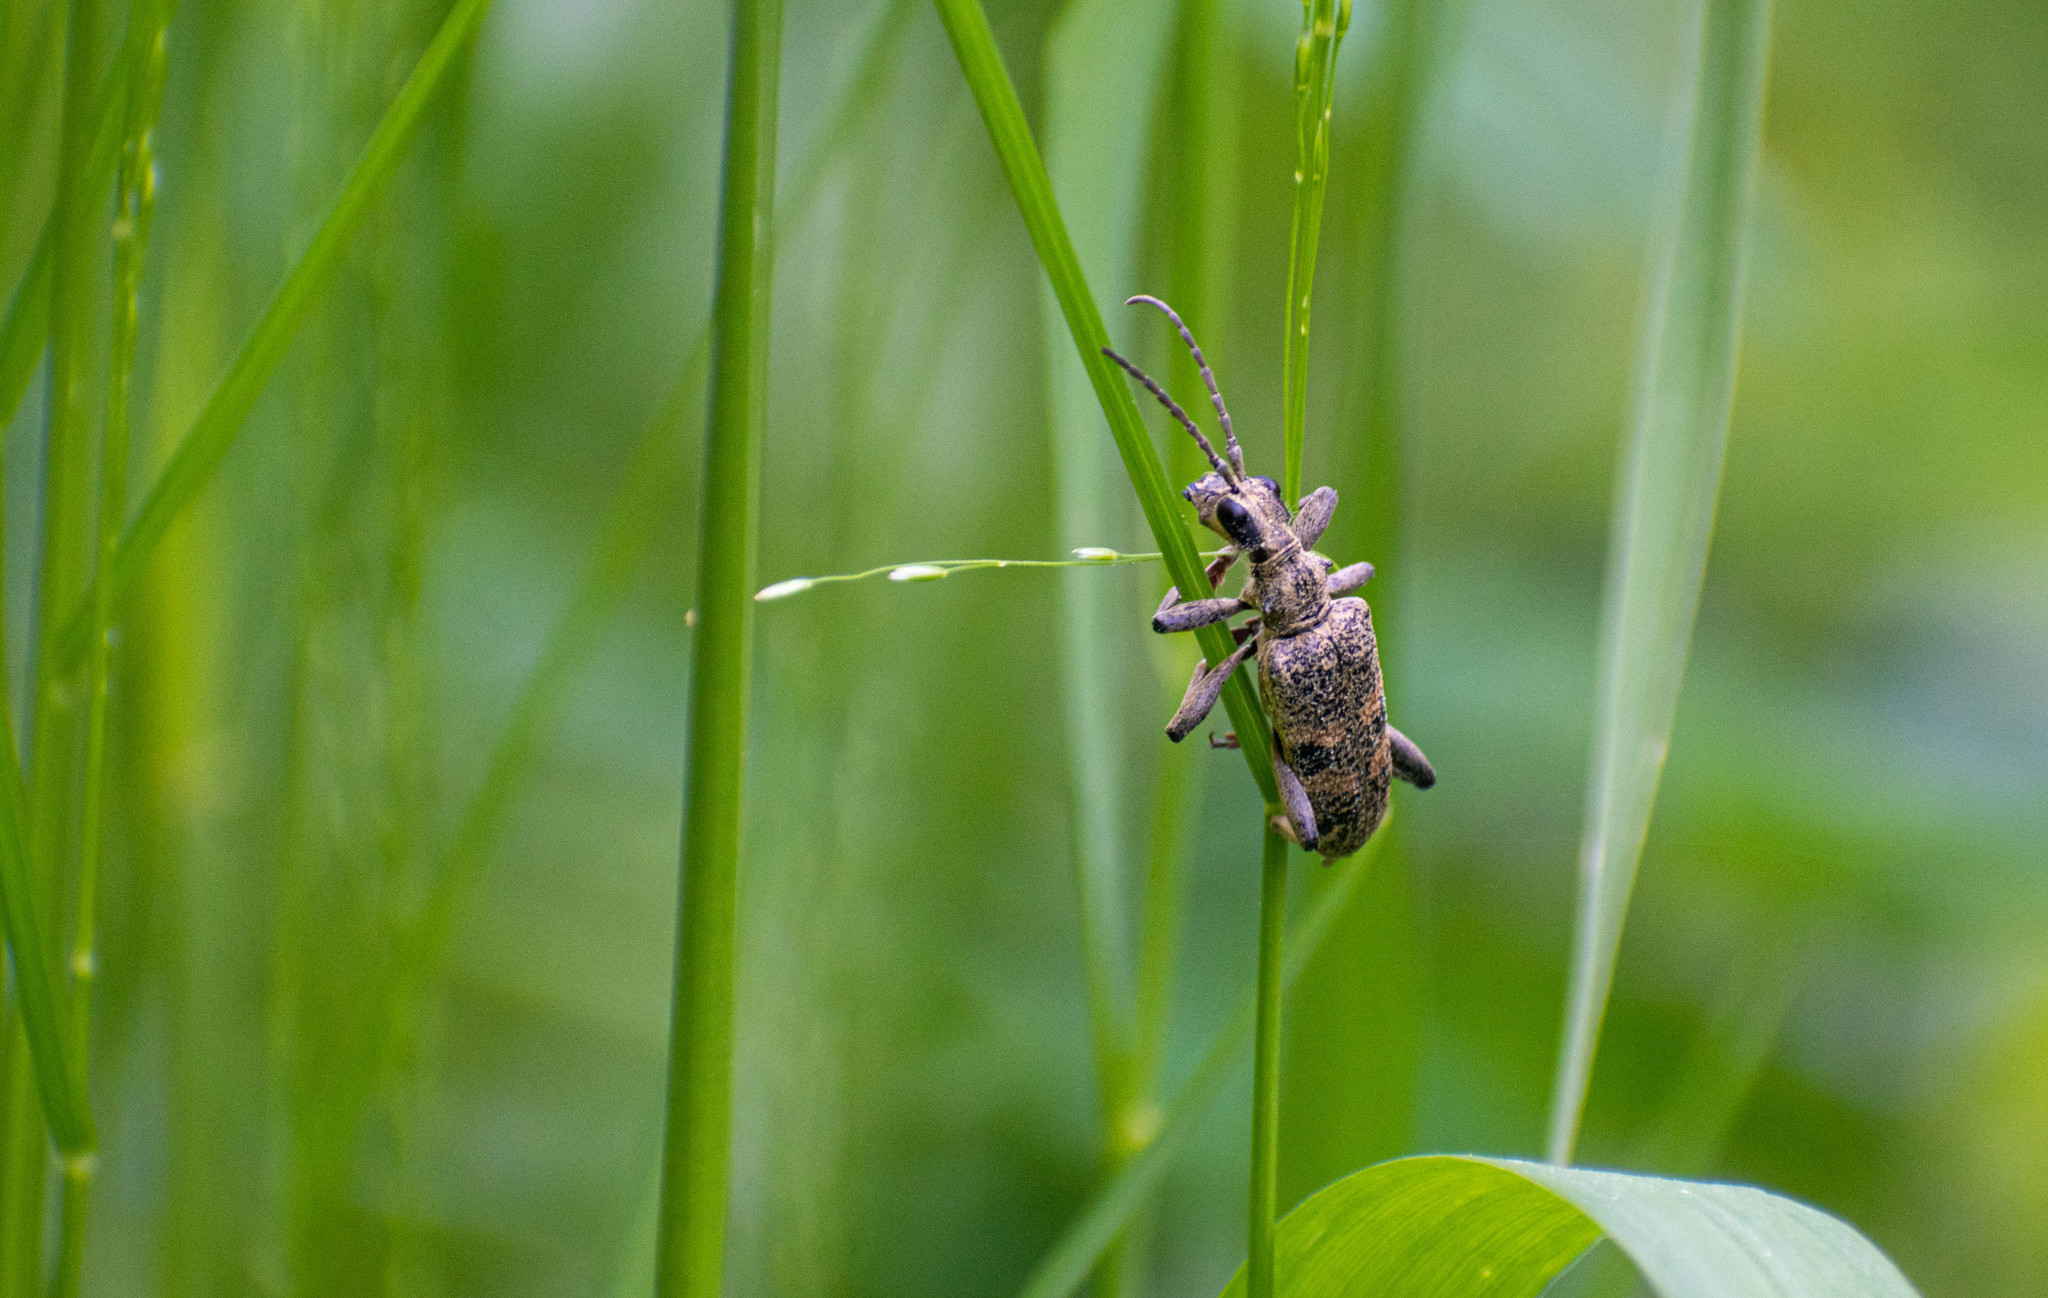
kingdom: Animalia
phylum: Arthropoda
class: Insecta
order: Coleoptera
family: Cerambycidae
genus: Rhagium
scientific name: Rhagium mordax
